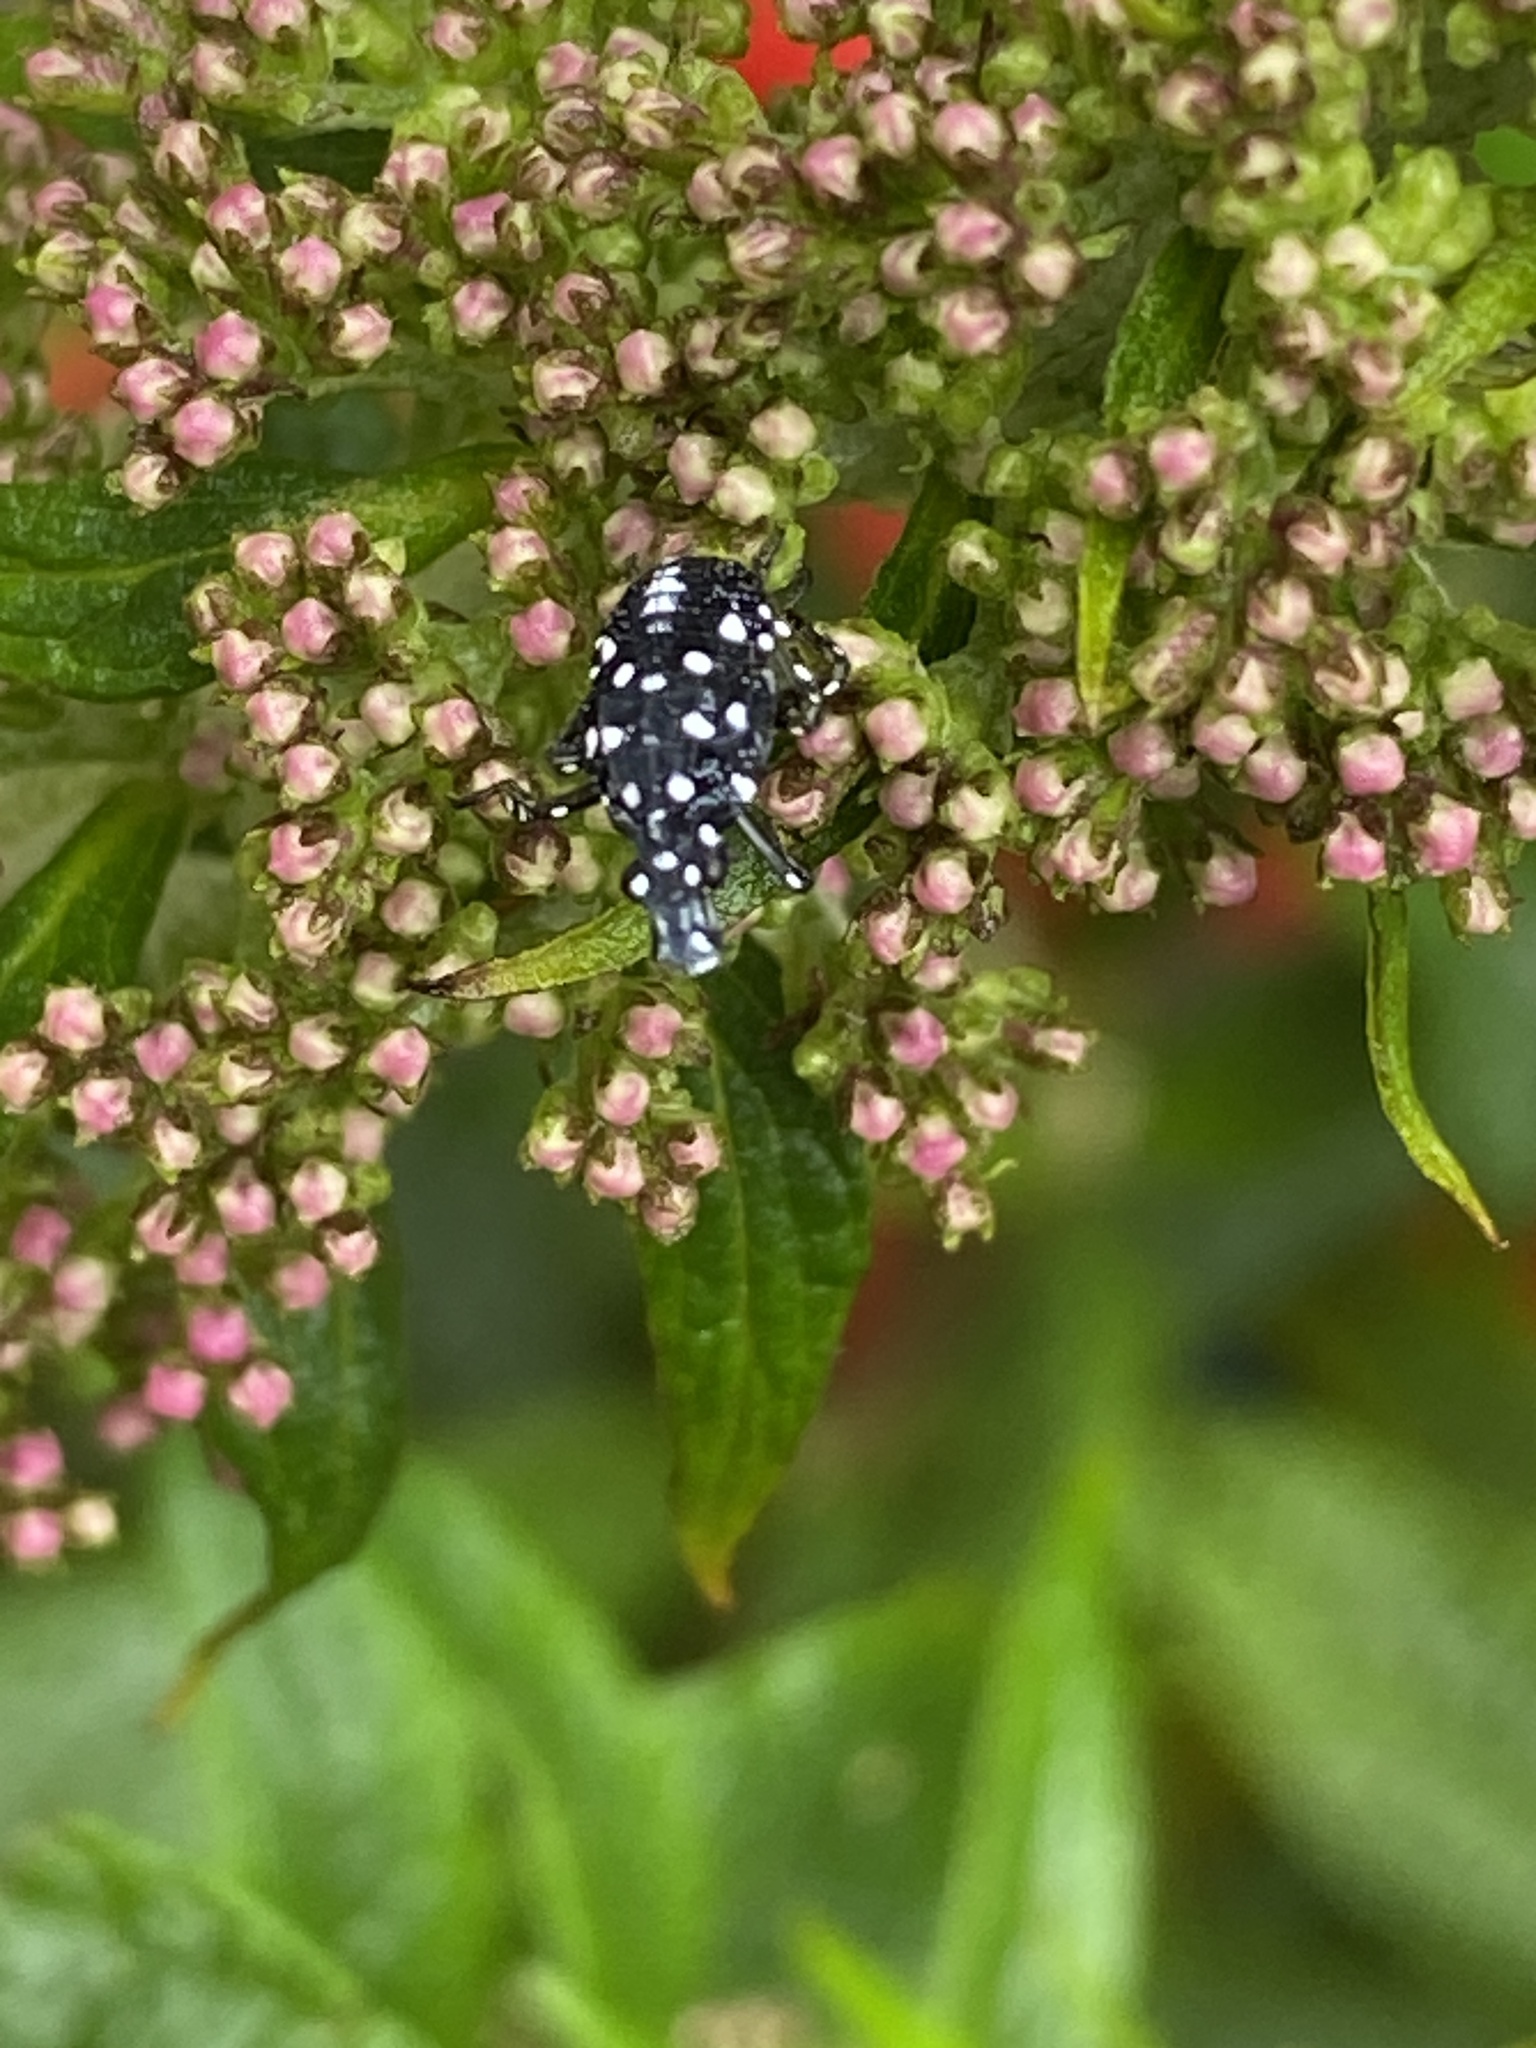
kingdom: Animalia
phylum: Arthropoda
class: Insecta
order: Hemiptera
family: Fulgoridae
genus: Lycorma
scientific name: Lycorma delicatula
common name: Spotted lanternfly
